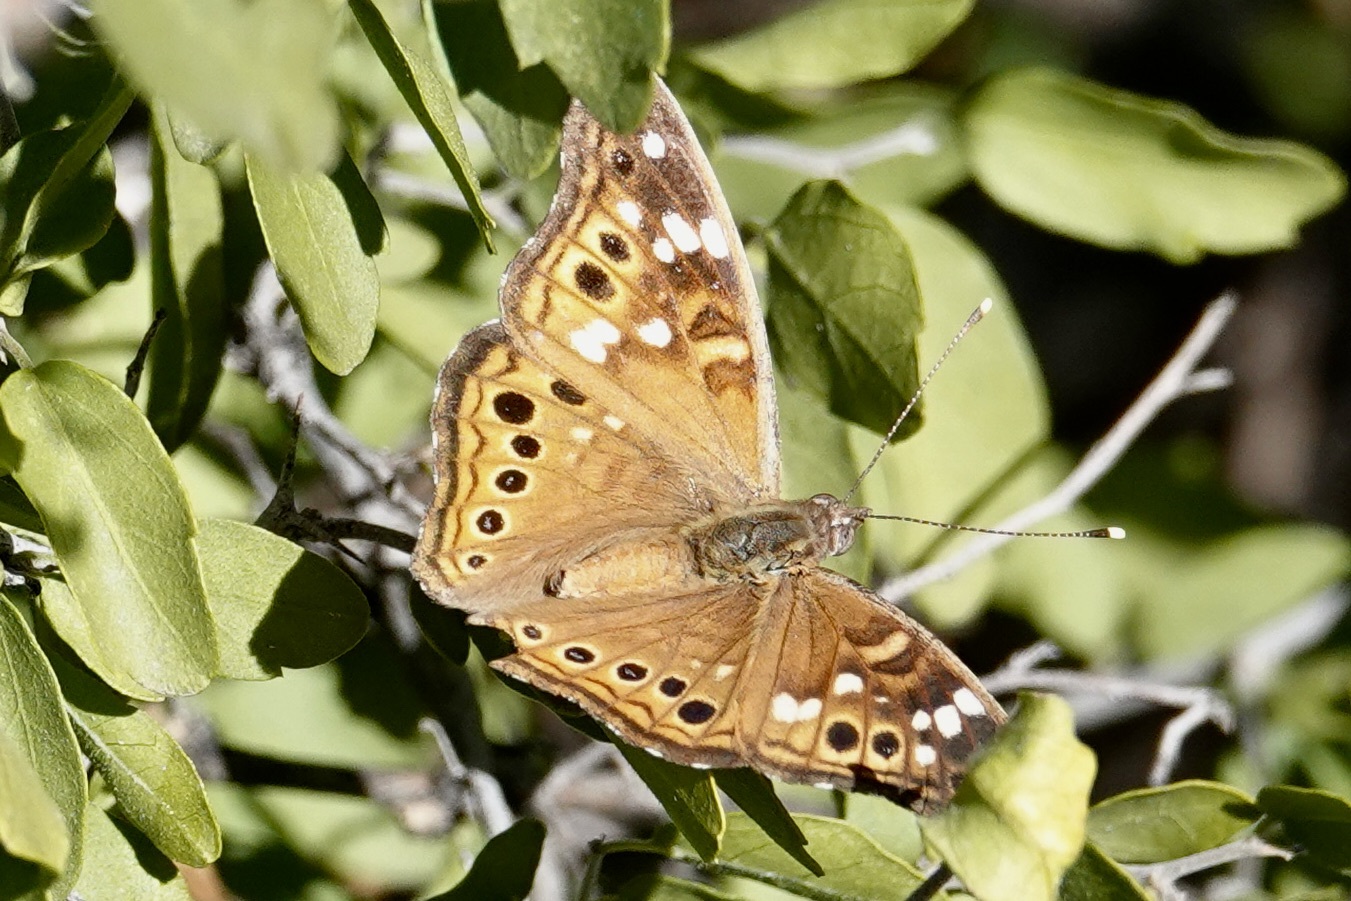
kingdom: Animalia
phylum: Arthropoda
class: Insecta
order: Lepidoptera
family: Nymphalidae
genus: Asterocampa
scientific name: Asterocampa leilia
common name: Empress leilia
